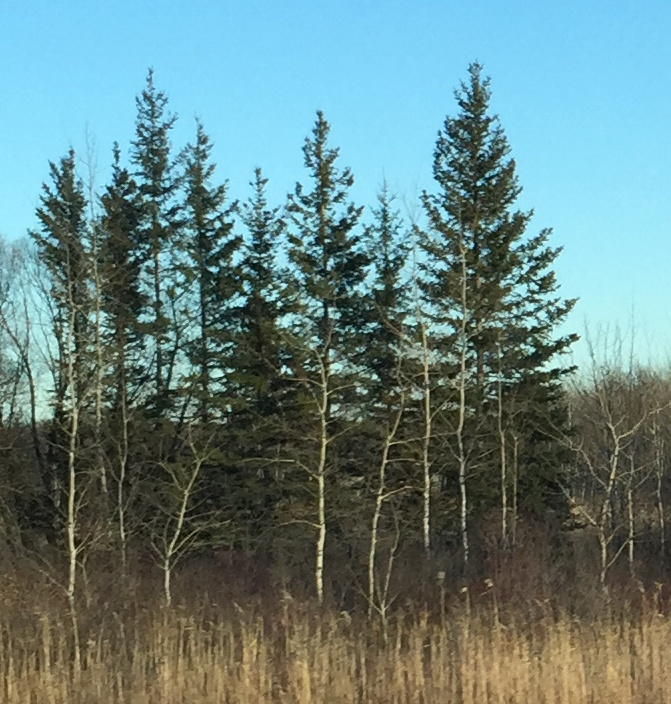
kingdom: Plantae
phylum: Tracheophyta
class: Pinopsida
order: Pinales
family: Pinaceae
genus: Picea
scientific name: Picea glauca
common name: White spruce
